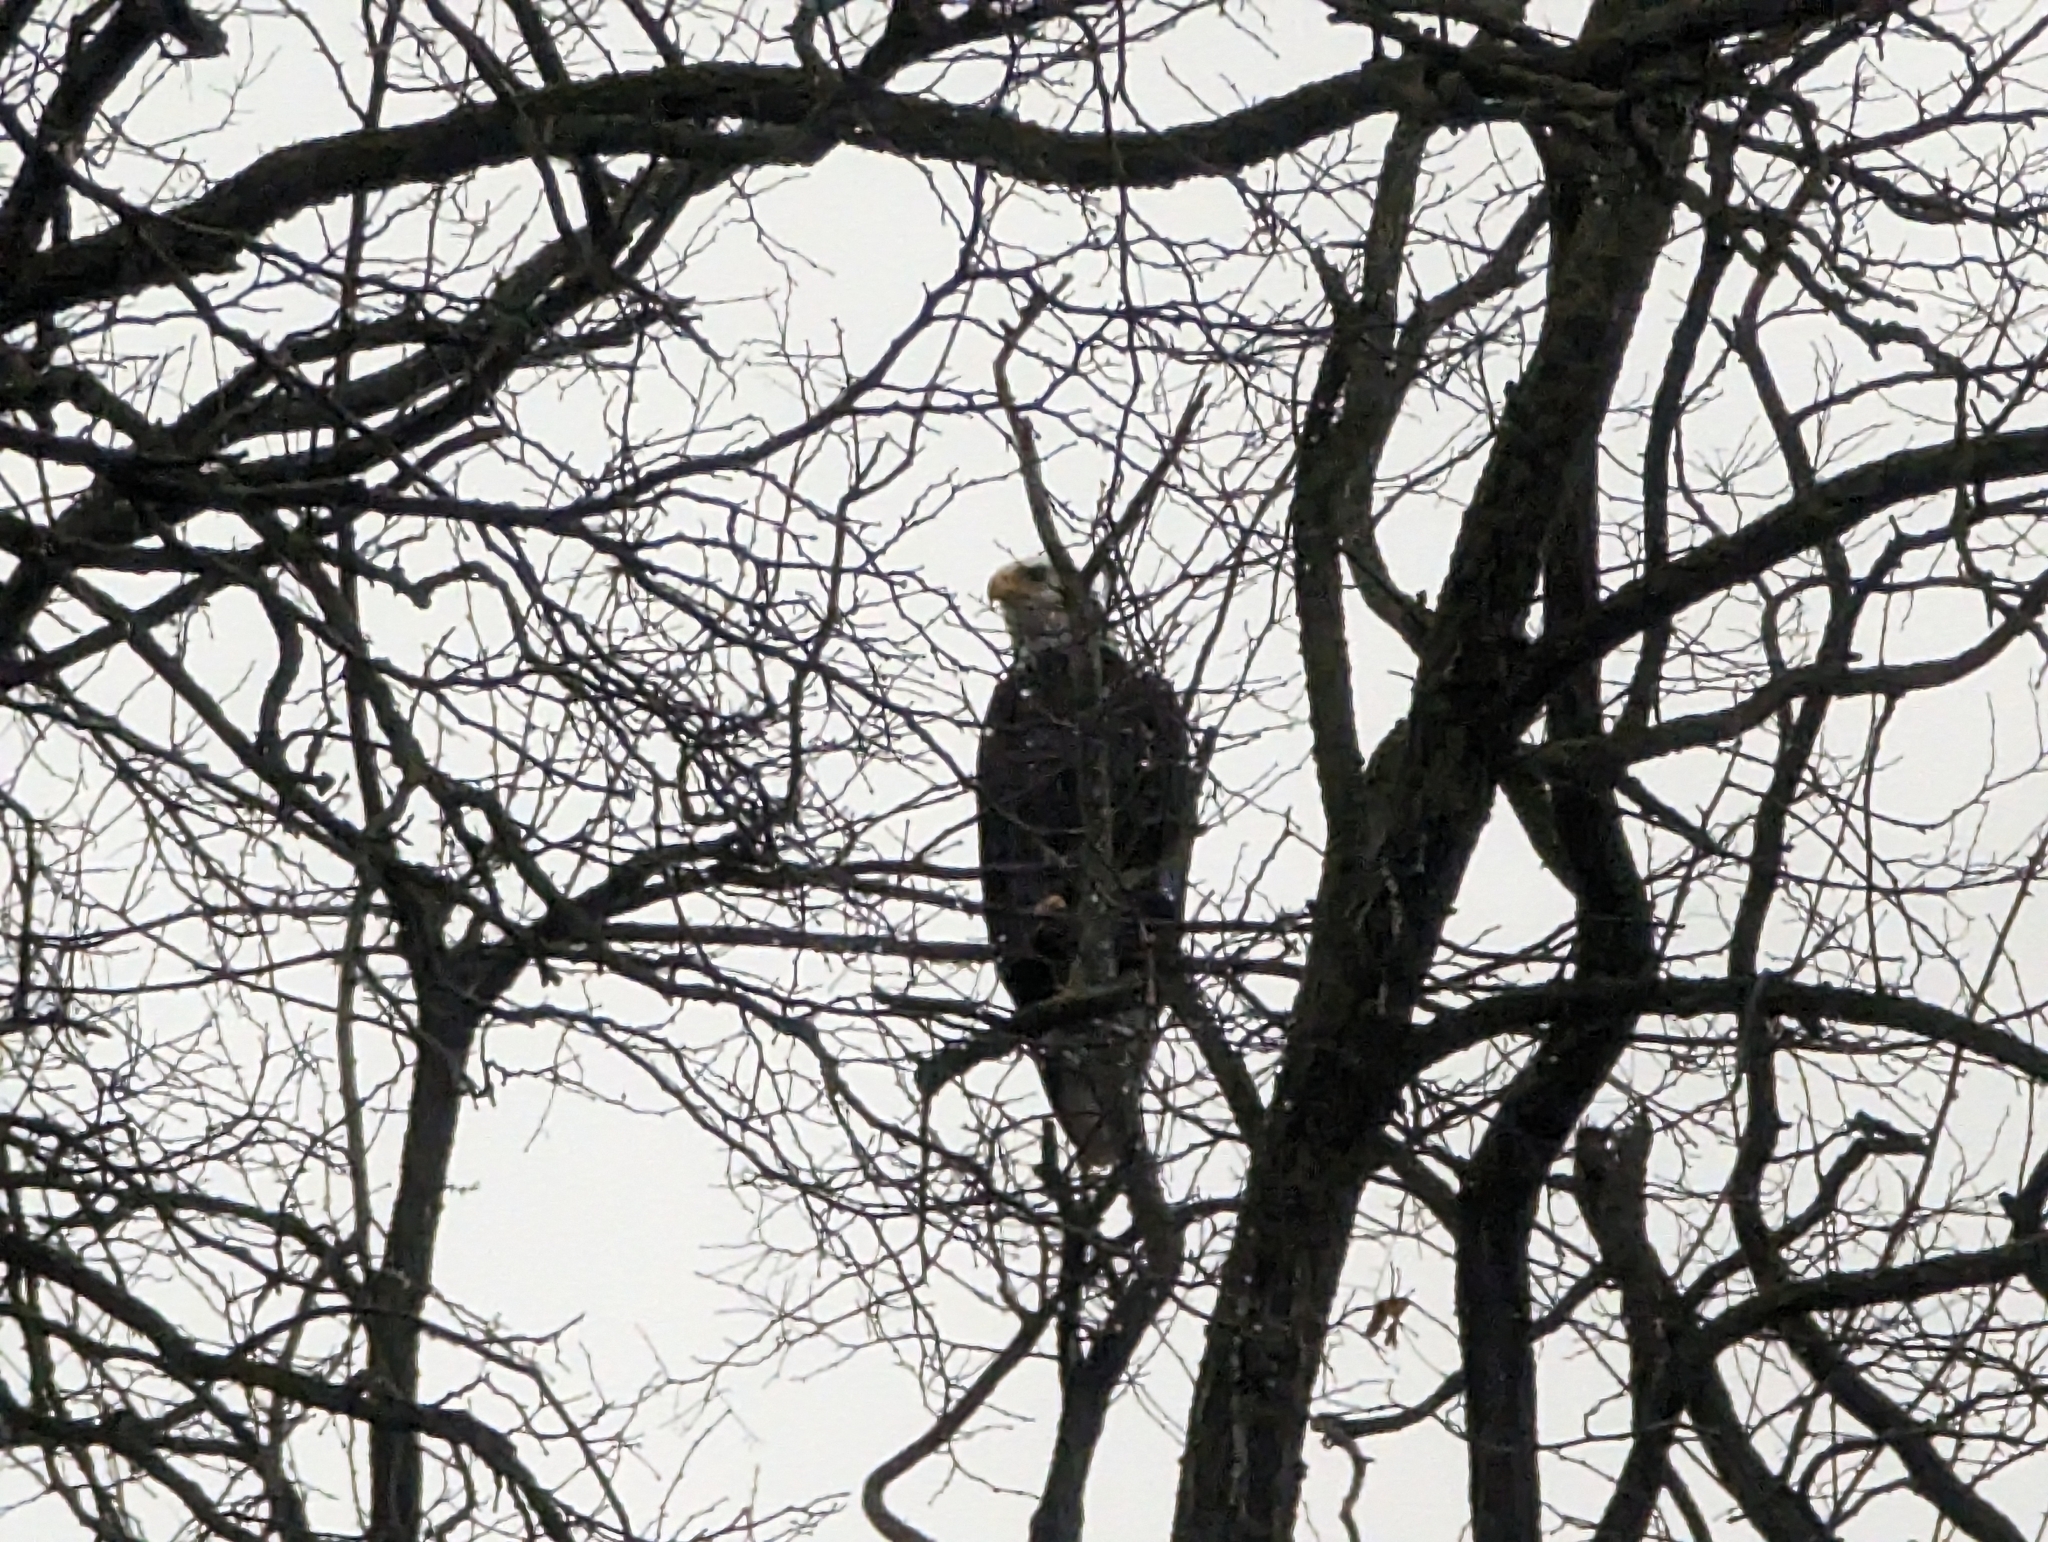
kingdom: Animalia
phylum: Chordata
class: Aves
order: Accipitriformes
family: Accipitridae
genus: Haliaeetus
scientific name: Haliaeetus leucocephalus
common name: Bald eagle
